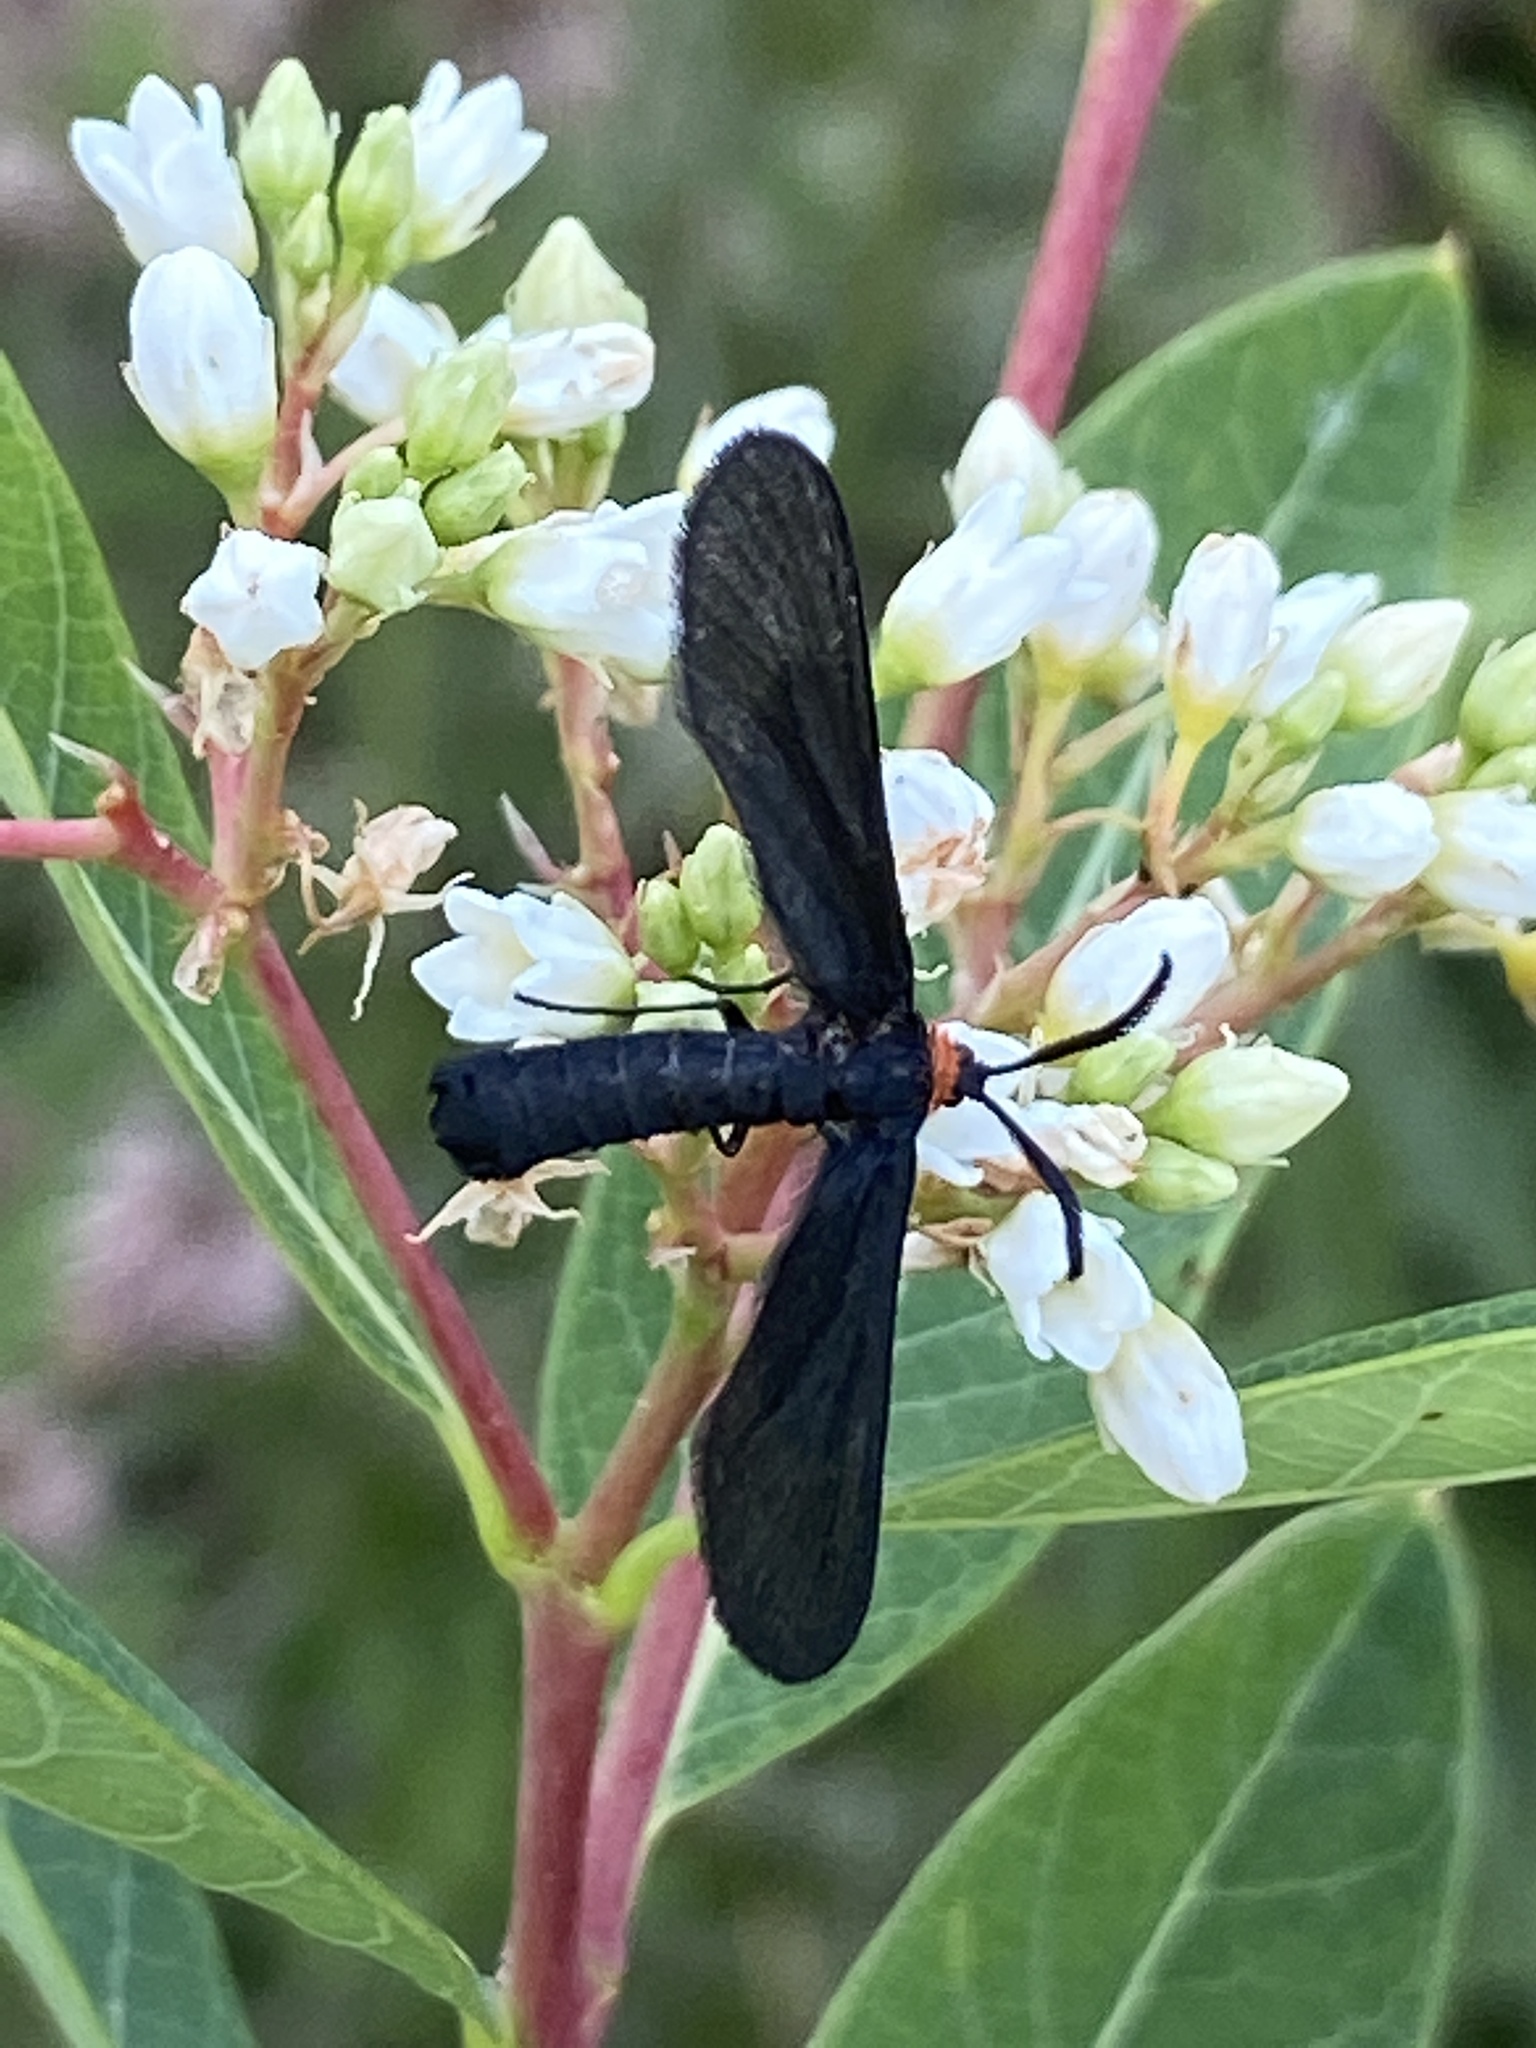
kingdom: Animalia
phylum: Arthropoda
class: Insecta
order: Lepidoptera
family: Zygaenidae
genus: Harrisina
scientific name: Harrisina americana
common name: Grapeleaf skeletonizer moth
